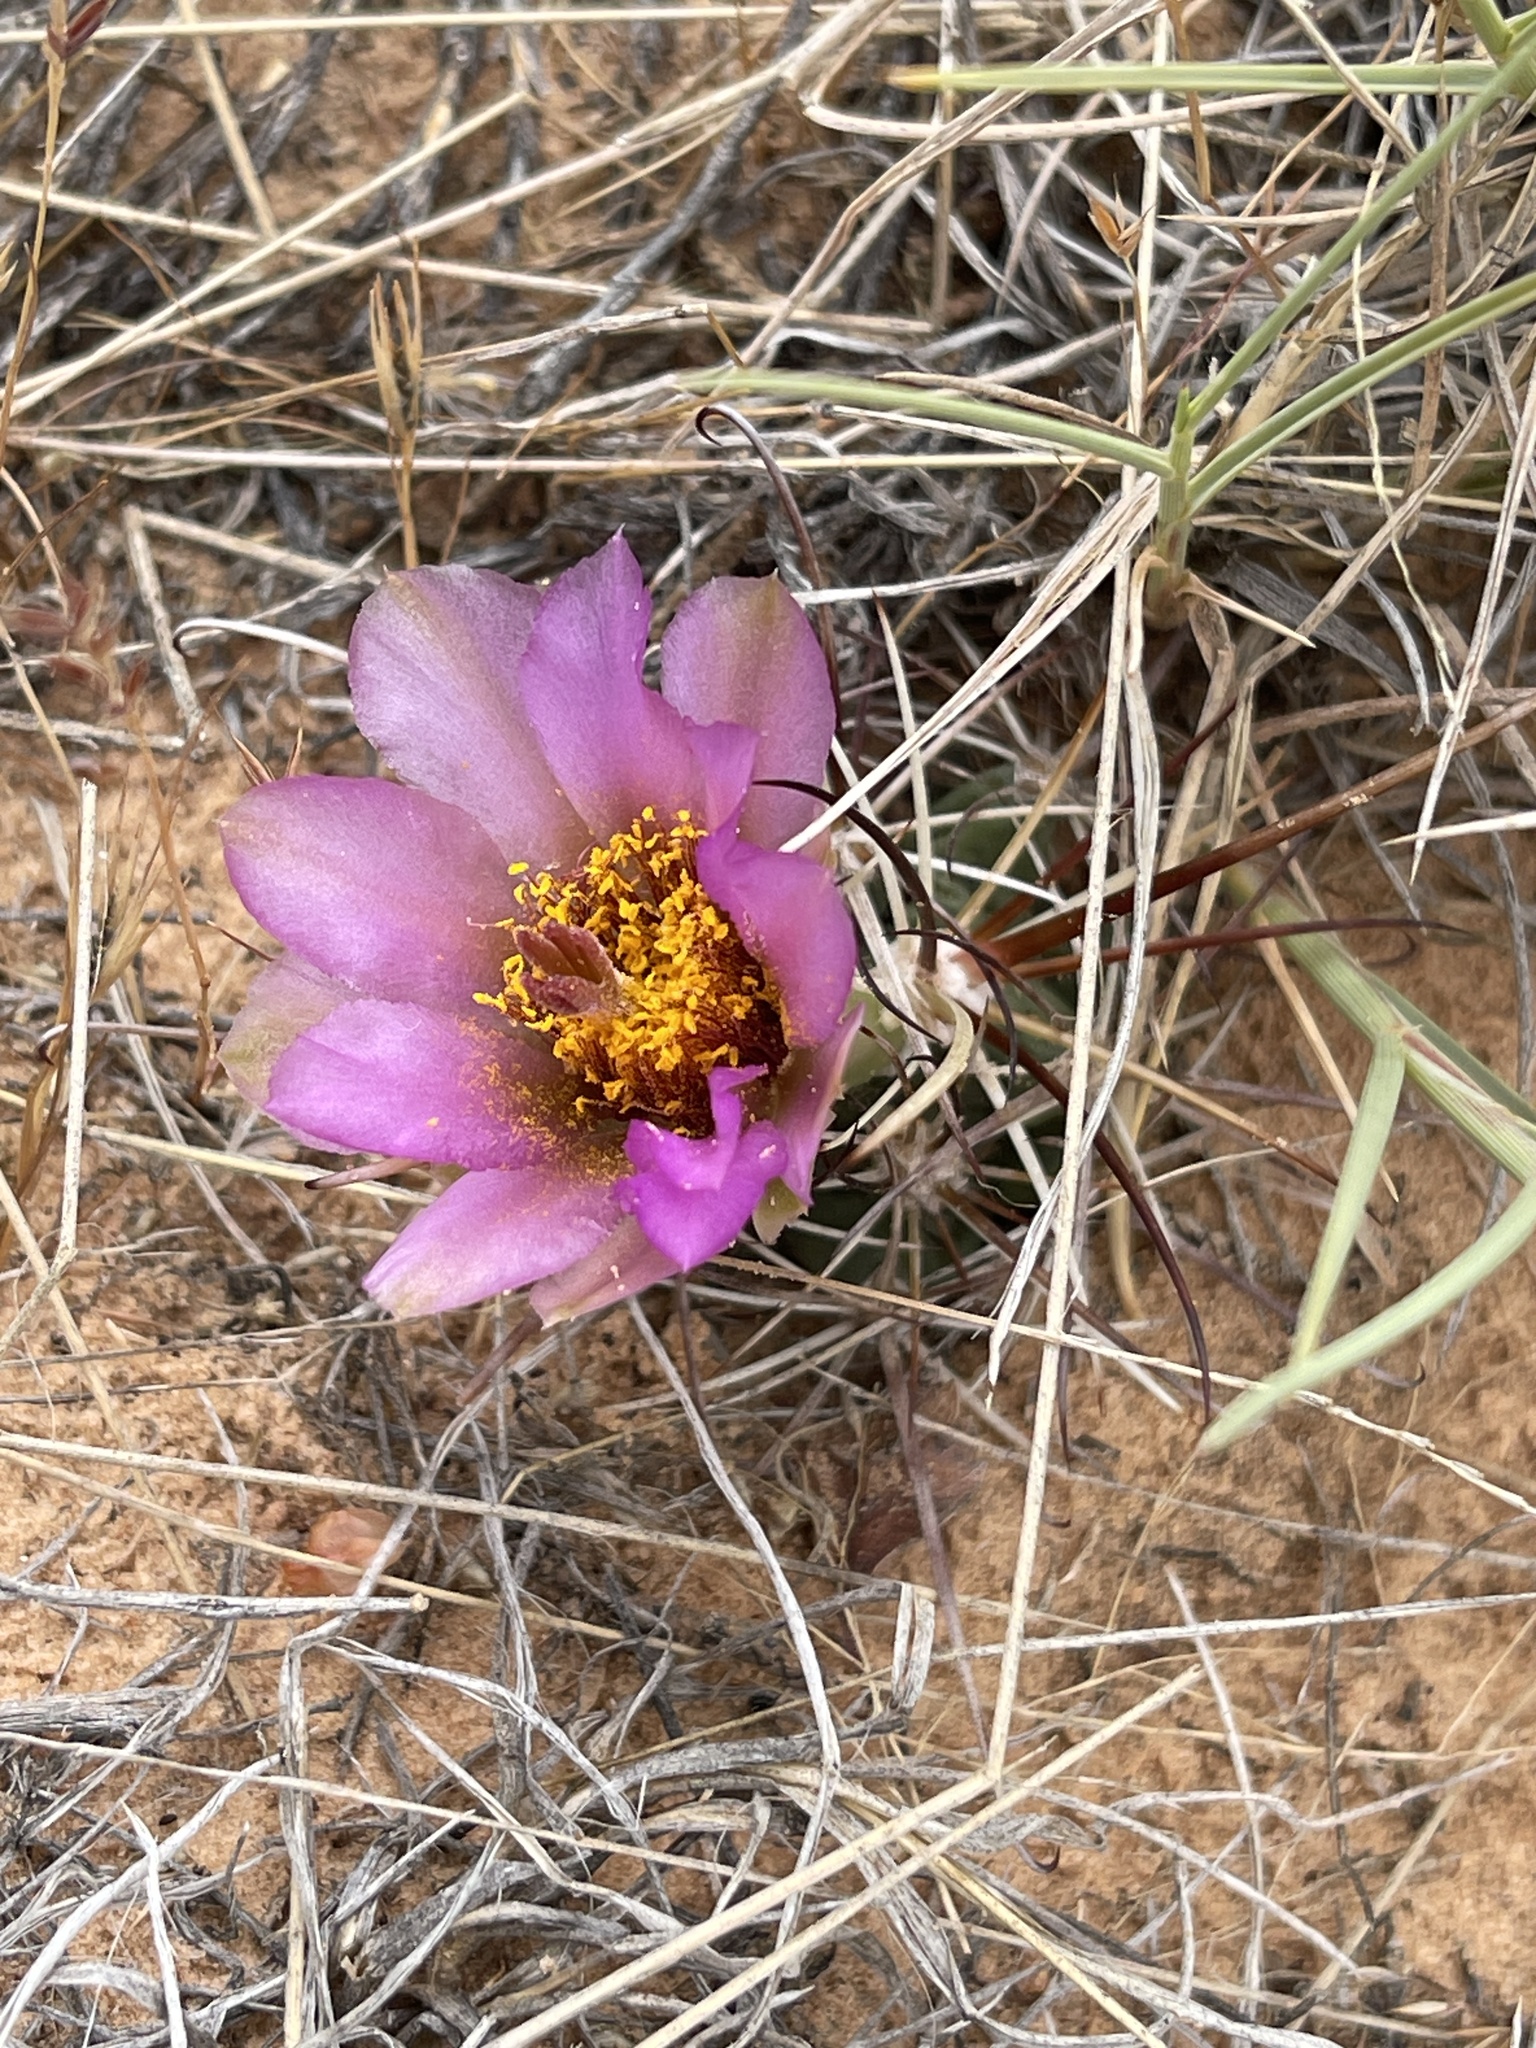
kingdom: Plantae
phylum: Tracheophyta
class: Magnoliopsida
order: Caryophyllales
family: Cactaceae
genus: Sclerocactus
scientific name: Sclerocactus parviflorus
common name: Small-flower fishhook cactus
